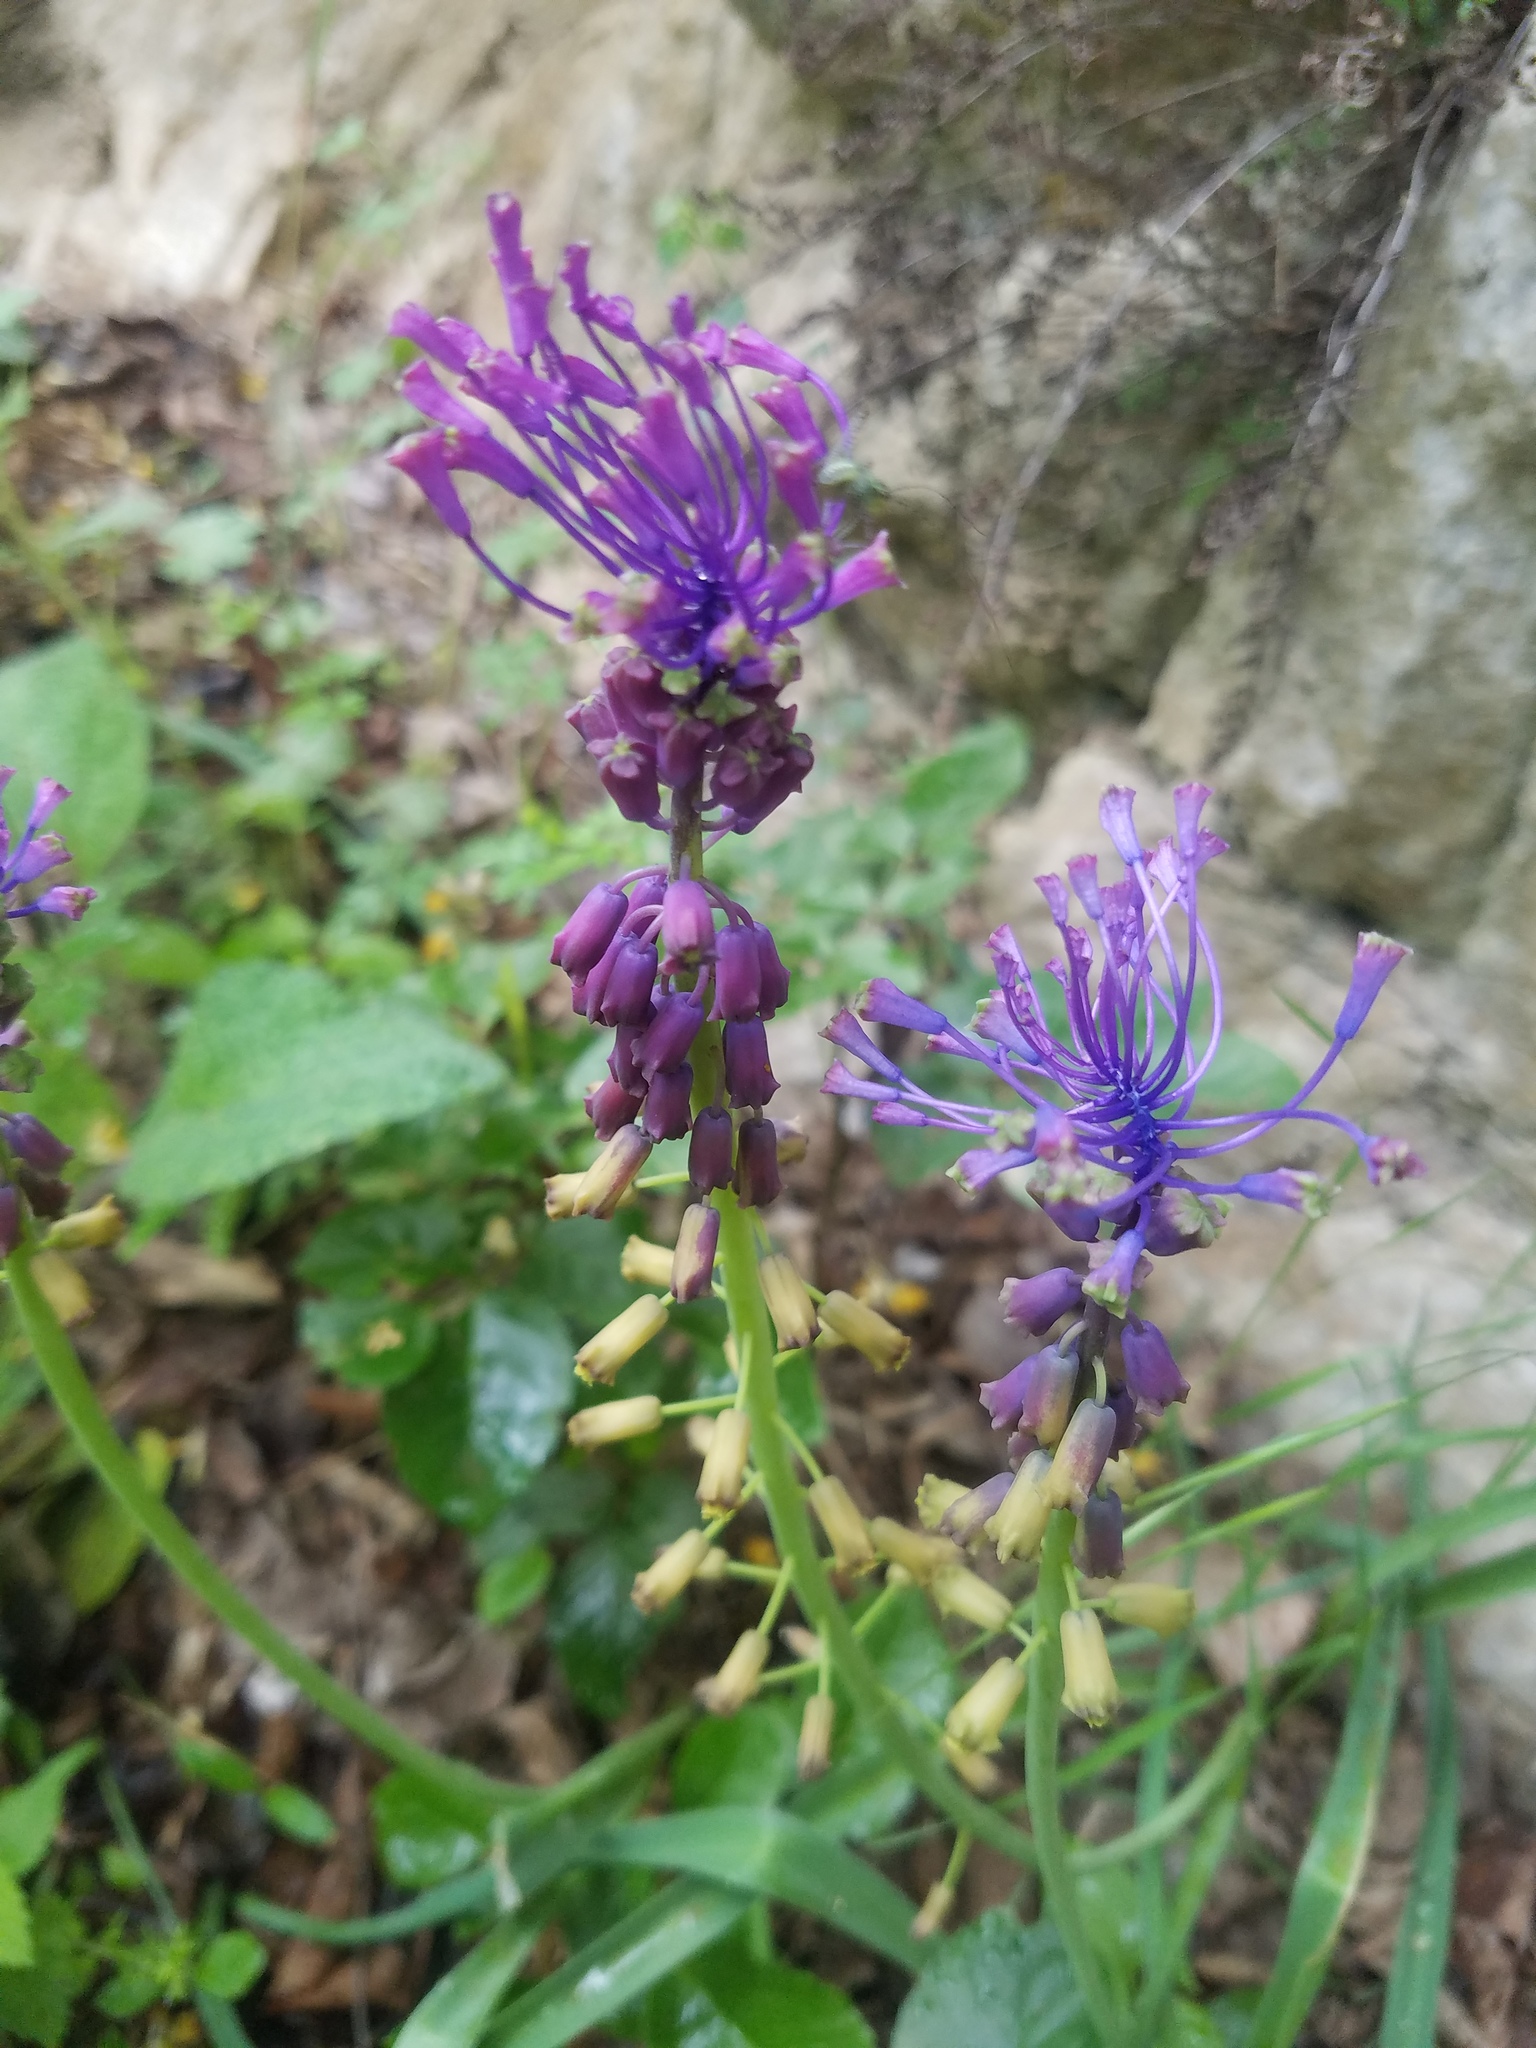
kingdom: Plantae
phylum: Tracheophyta
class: Liliopsida
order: Asparagales
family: Asparagaceae
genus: Muscari
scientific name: Muscari comosum
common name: Tassel hyacinth
